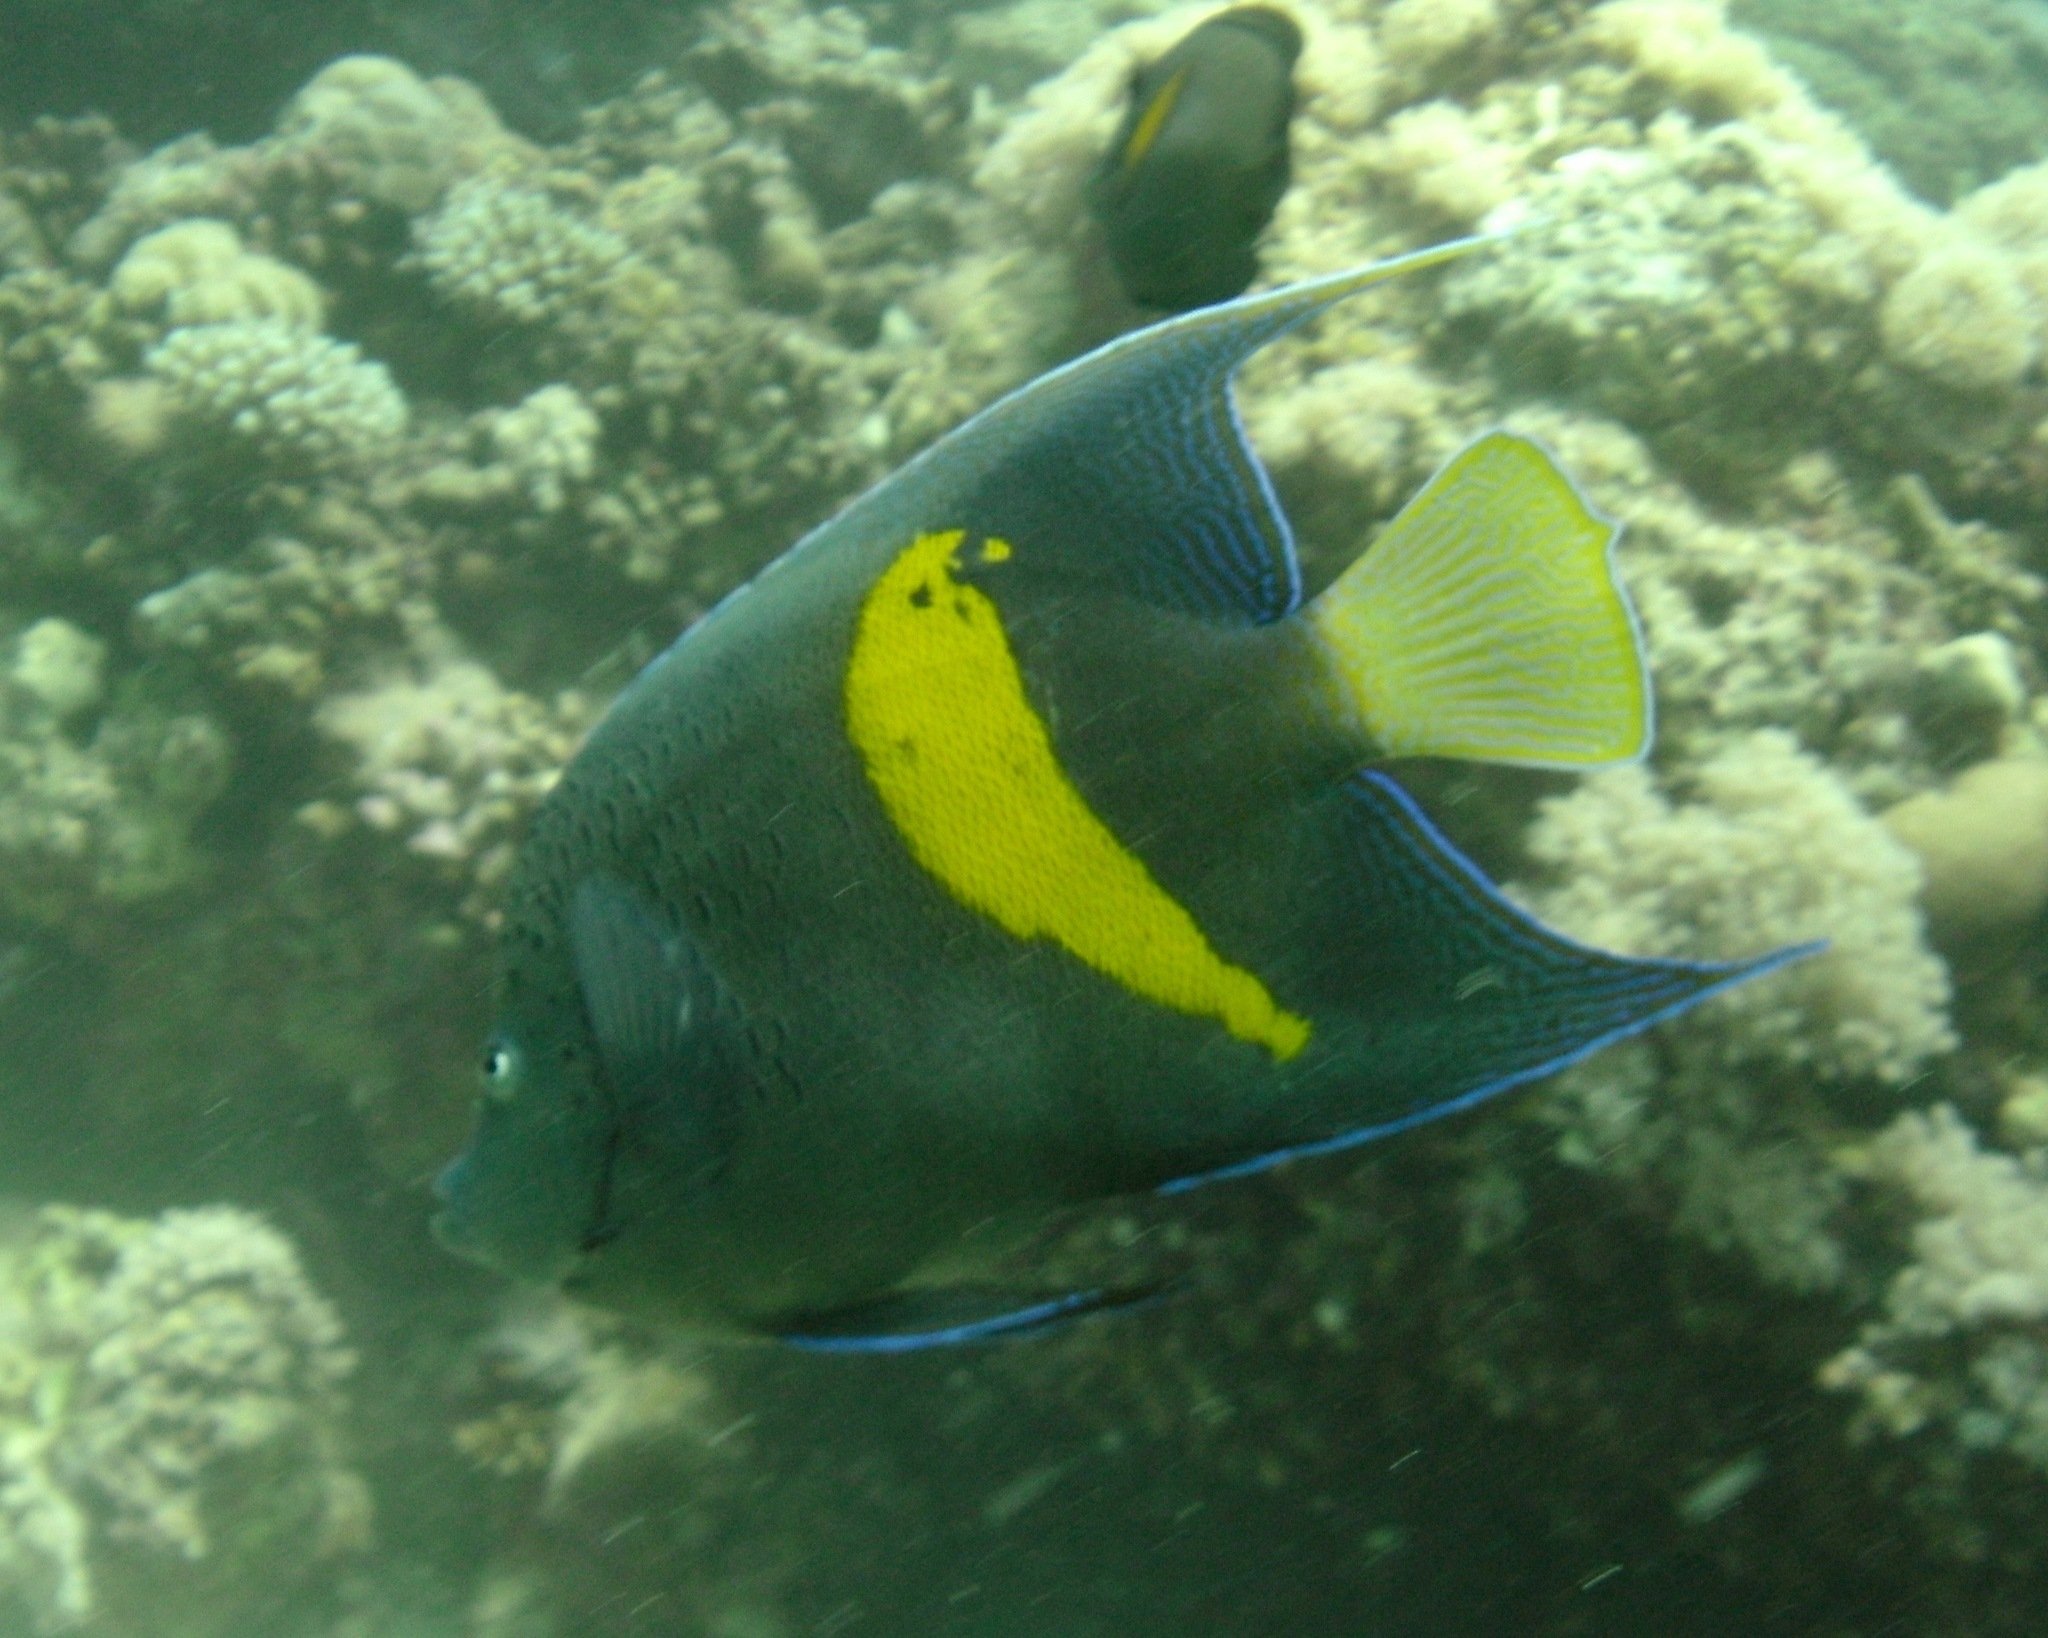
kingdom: Animalia
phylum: Chordata
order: Perciformes
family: Pomacanthidae
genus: Pomacanthus
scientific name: Pomacanthus maculosus
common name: Yellowbar angelfish
